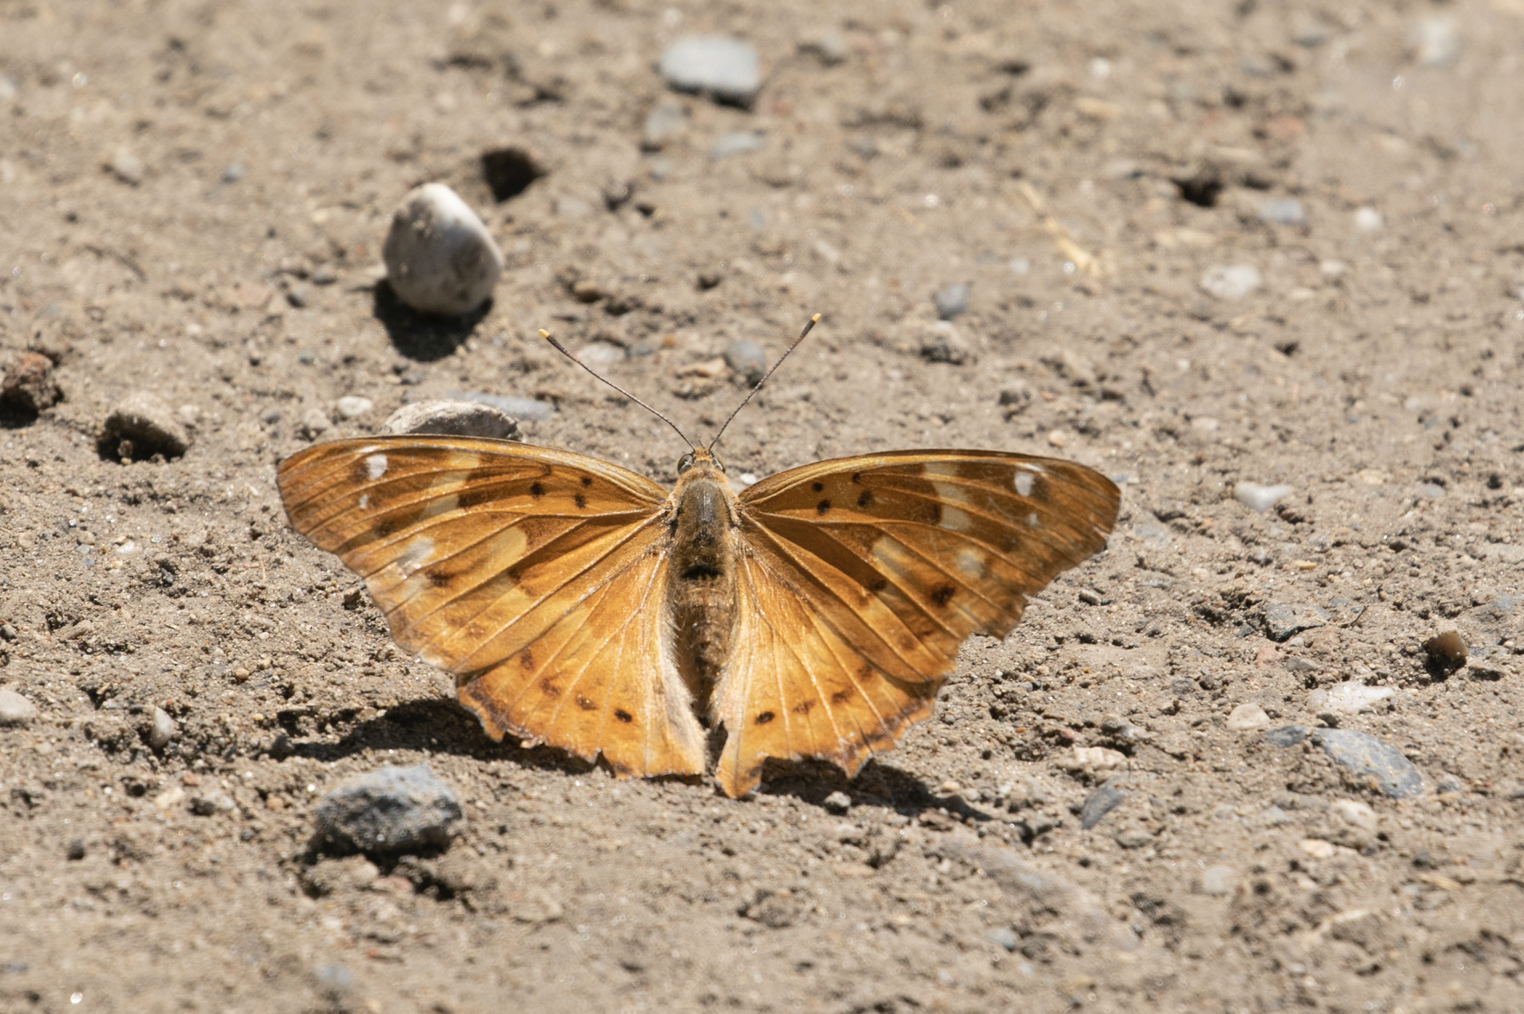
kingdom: Animalia
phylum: Arthropoda
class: Insecta
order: Lepidoptera
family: Nymphalidae
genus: Apatura
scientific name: Apatura ilia
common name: Lesser purple emperor
